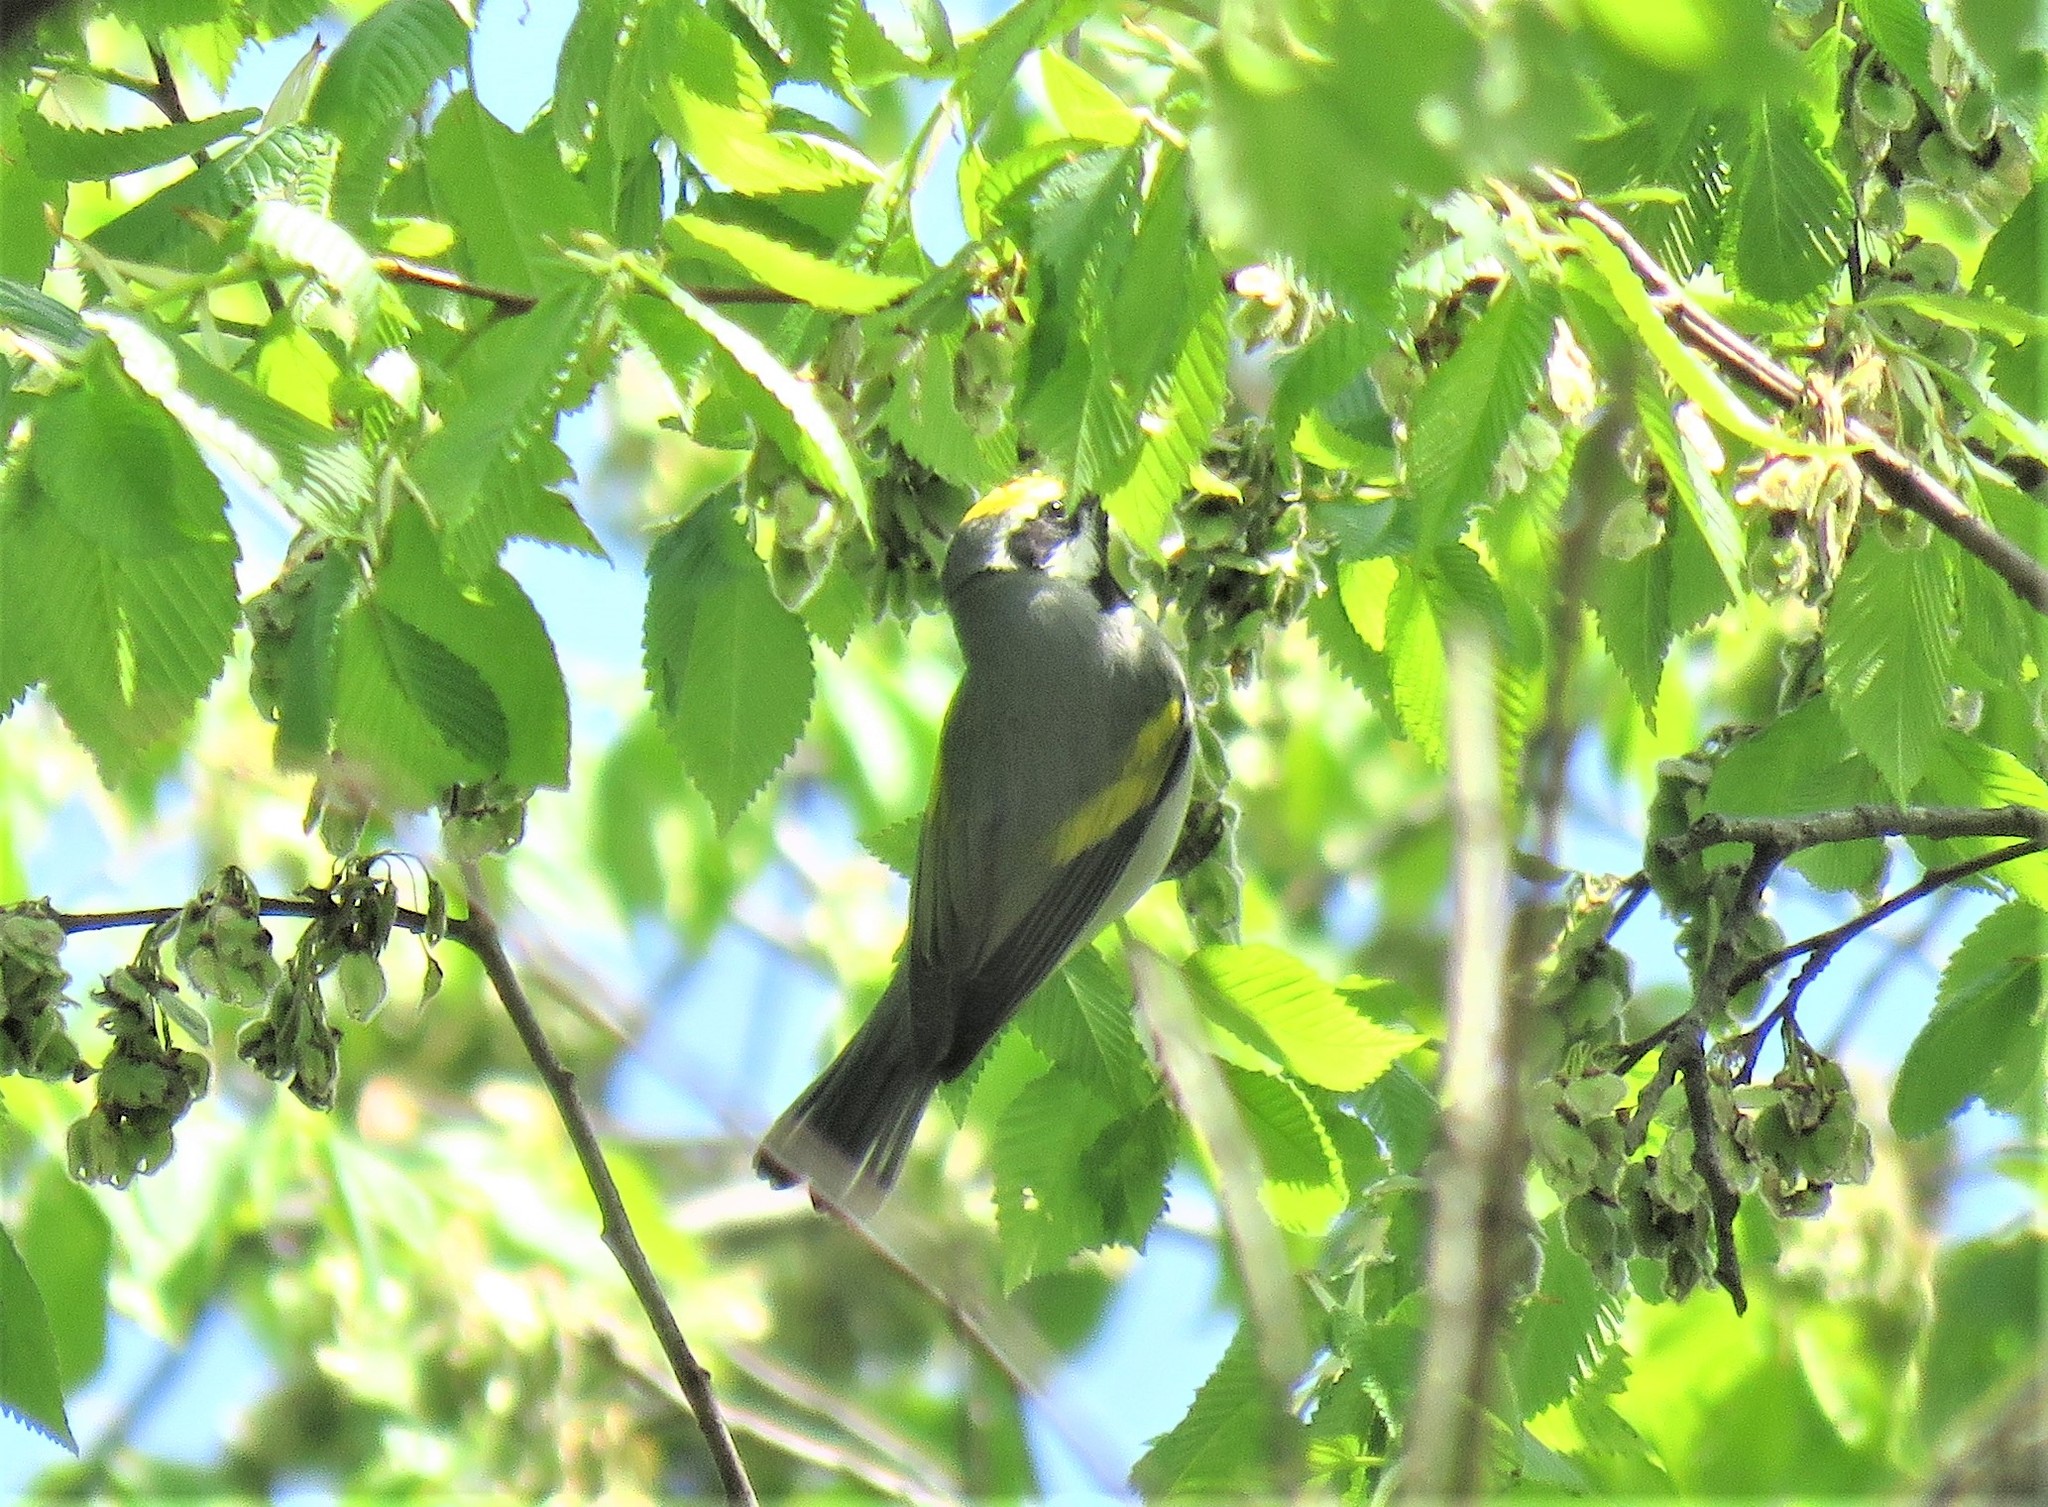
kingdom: Animalia
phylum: Chordata
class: Aves
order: Passeriformes
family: Parulidae
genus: Vermivora
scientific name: Vermivora chrysoptera
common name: Golden-winged warbler
